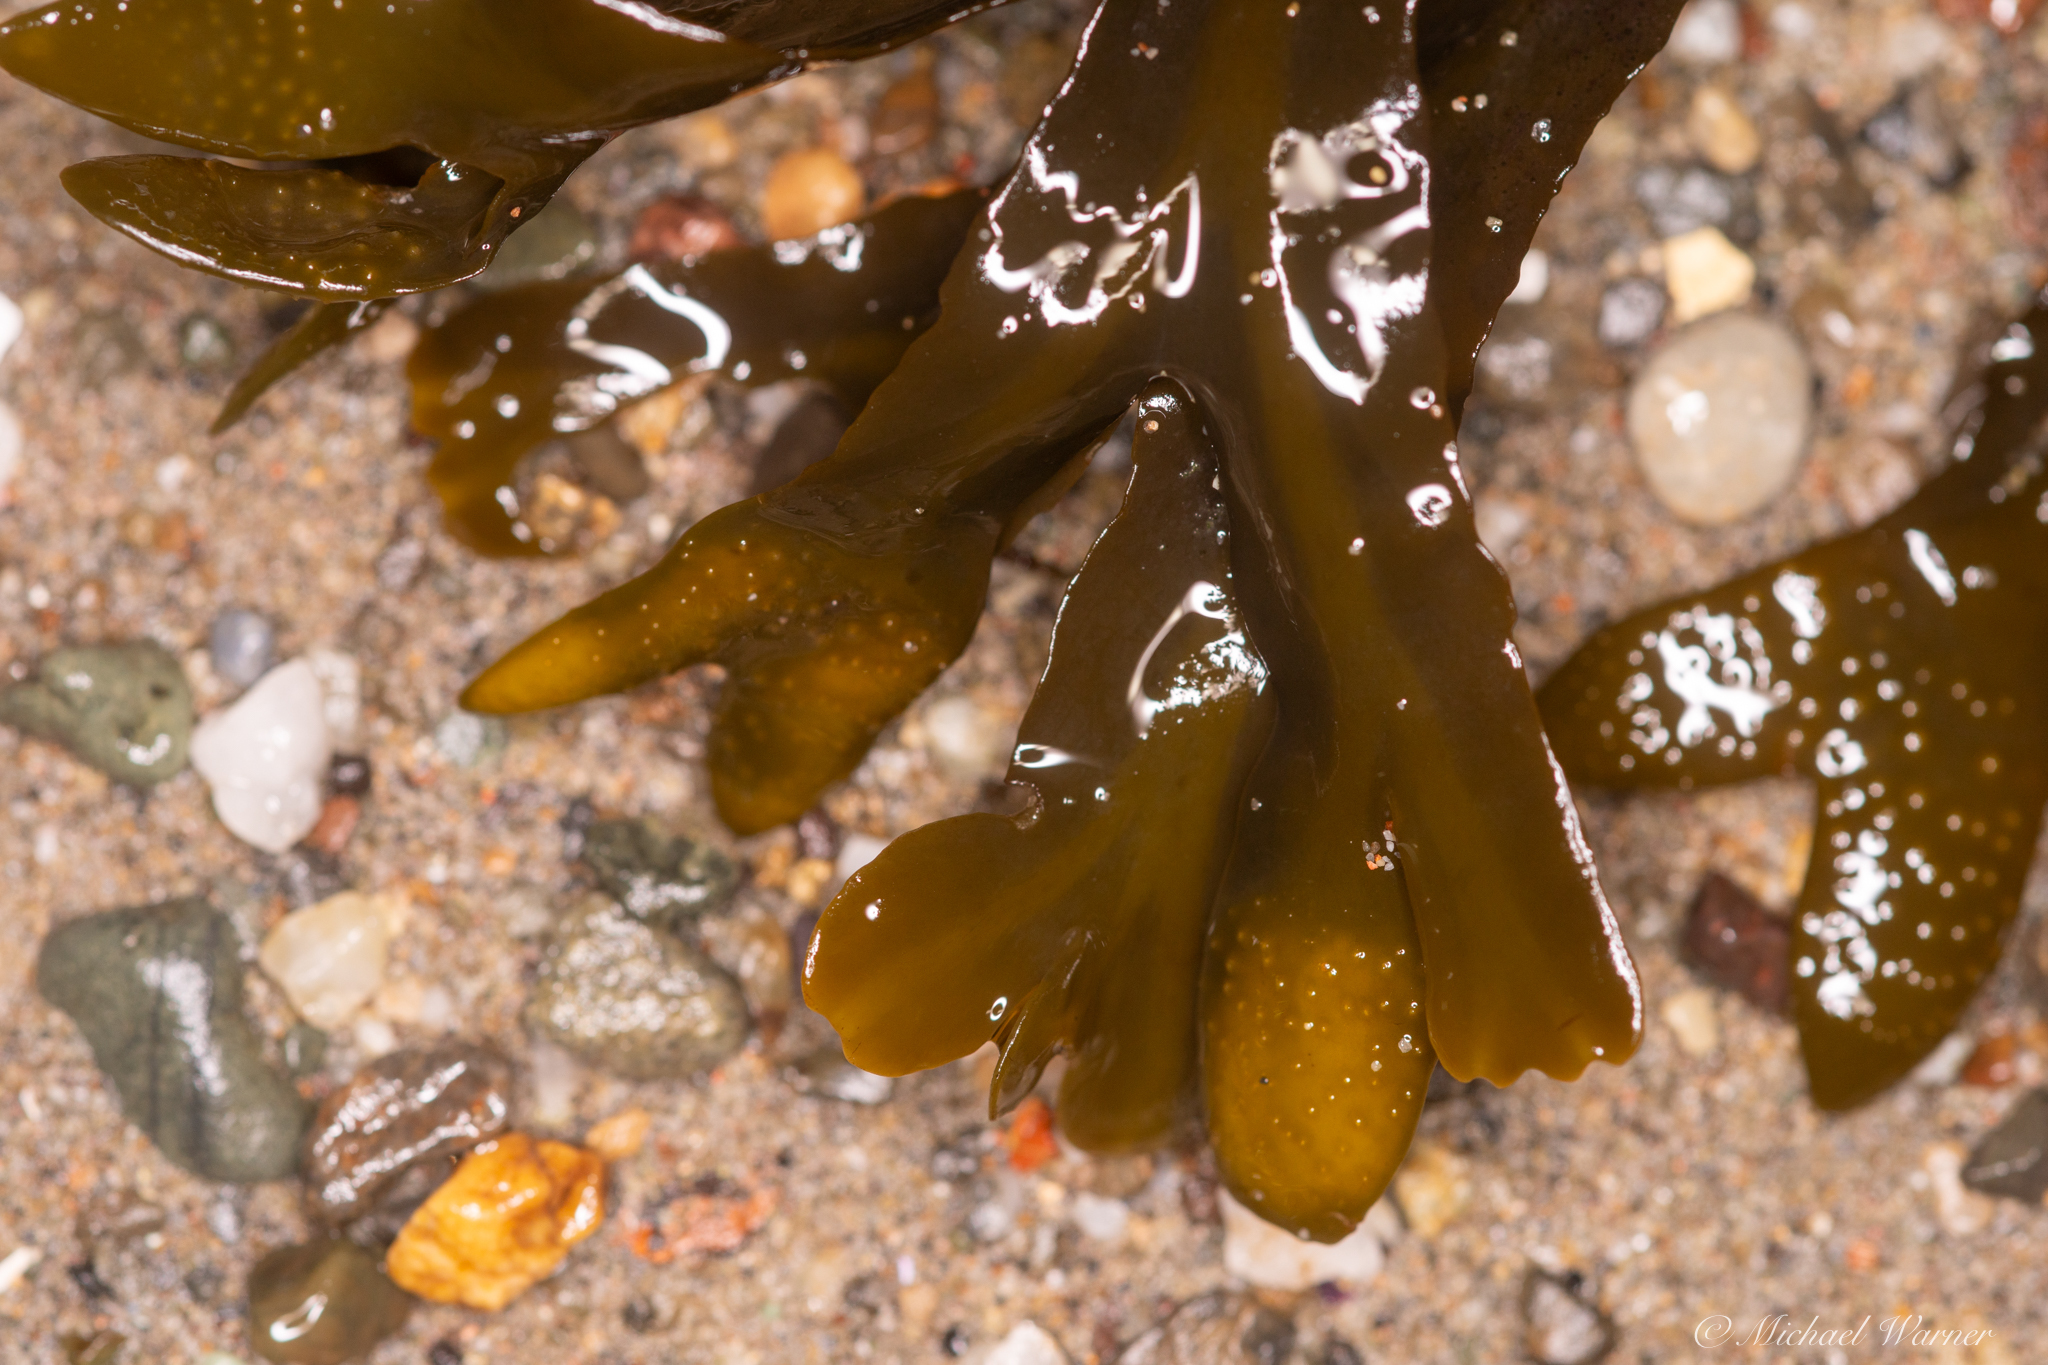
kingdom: Chromista
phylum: Ochrophyta
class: Phaeophyceae
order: Fucales
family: Fucaceae
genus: Fucus
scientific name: Fucus distichus
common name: Rockweed
